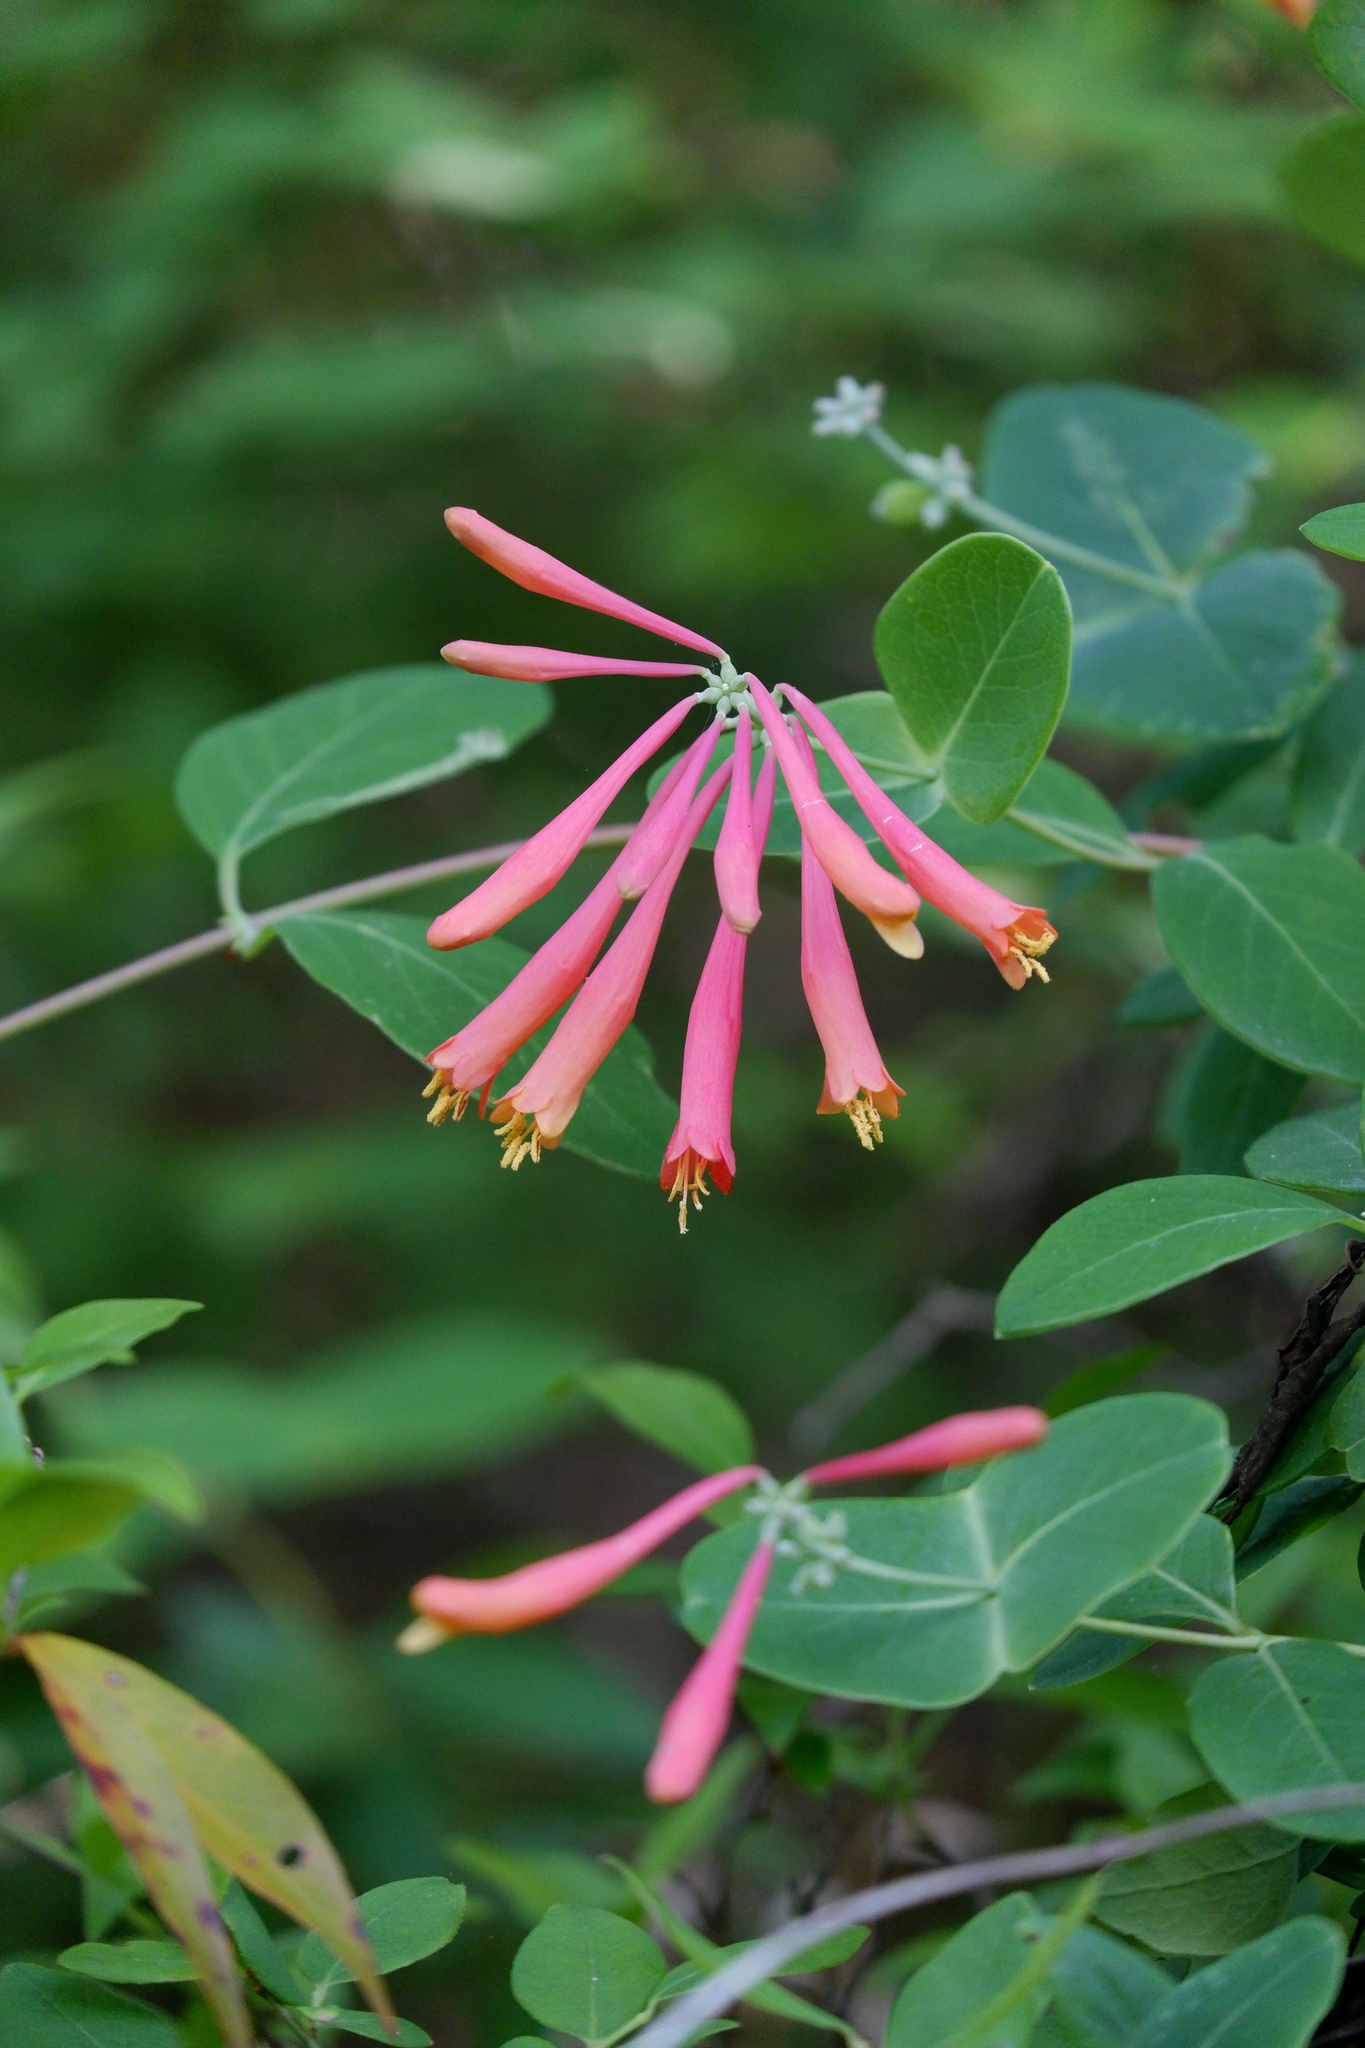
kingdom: Plantae
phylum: Tracheophyta
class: Magnoliopsida
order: Dipsacales
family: Caprifoliaceae
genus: Lonicera
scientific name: Lonicera sempervirens
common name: Coral honeysuckle
